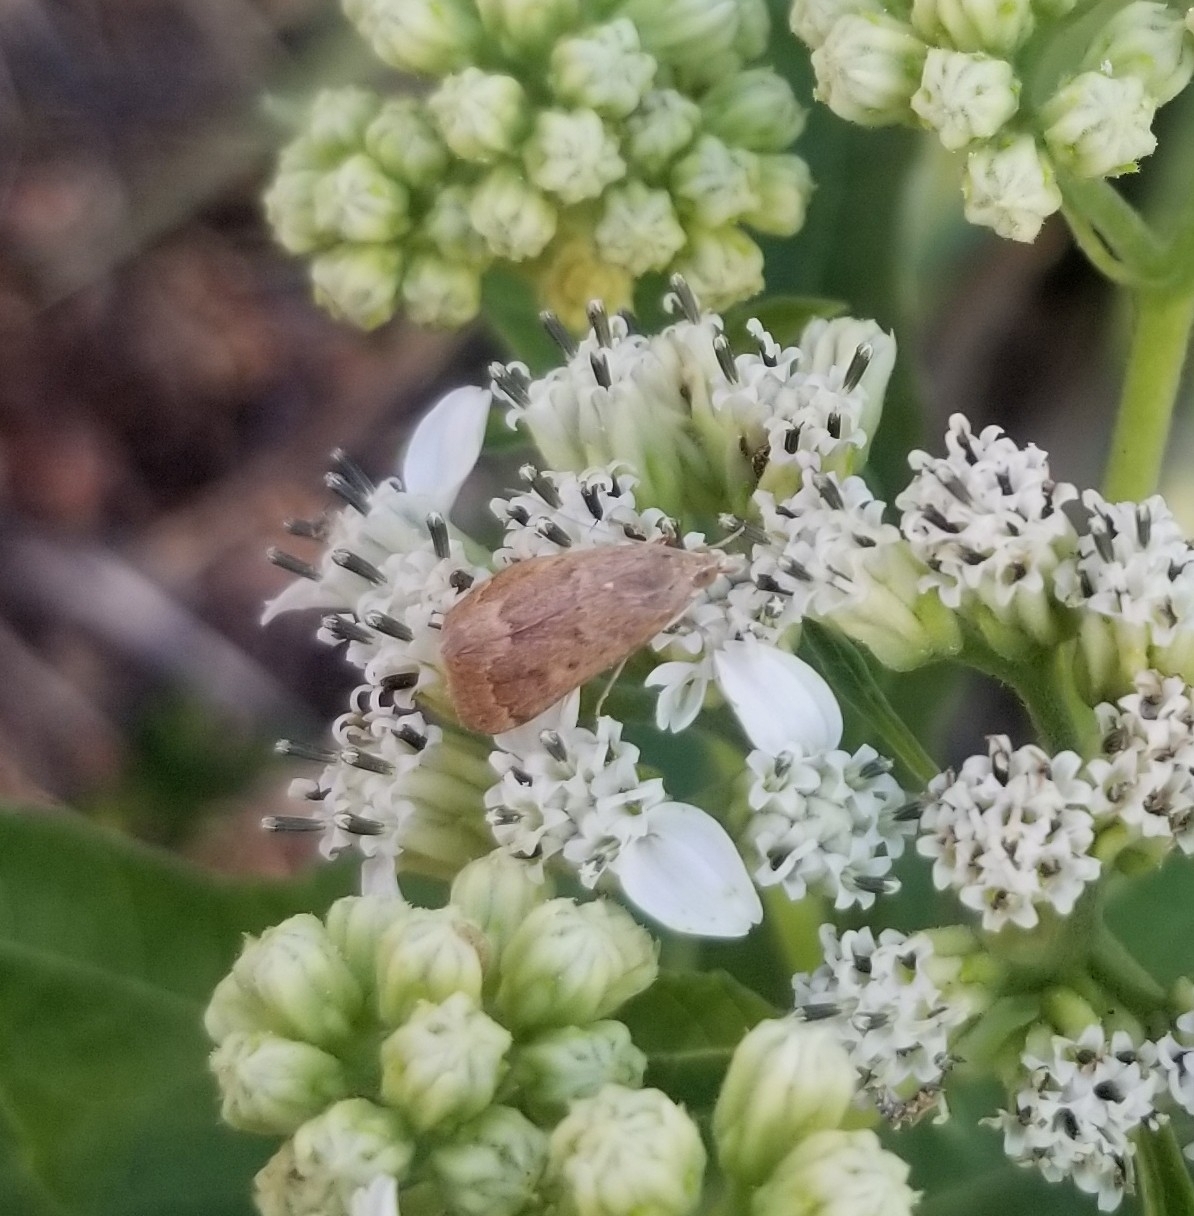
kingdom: Animalia
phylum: Arthropoda
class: Insecta
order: Lepidoptera
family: Crambidae
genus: Achyra
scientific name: Achyra rantalis
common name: Garden webworm
